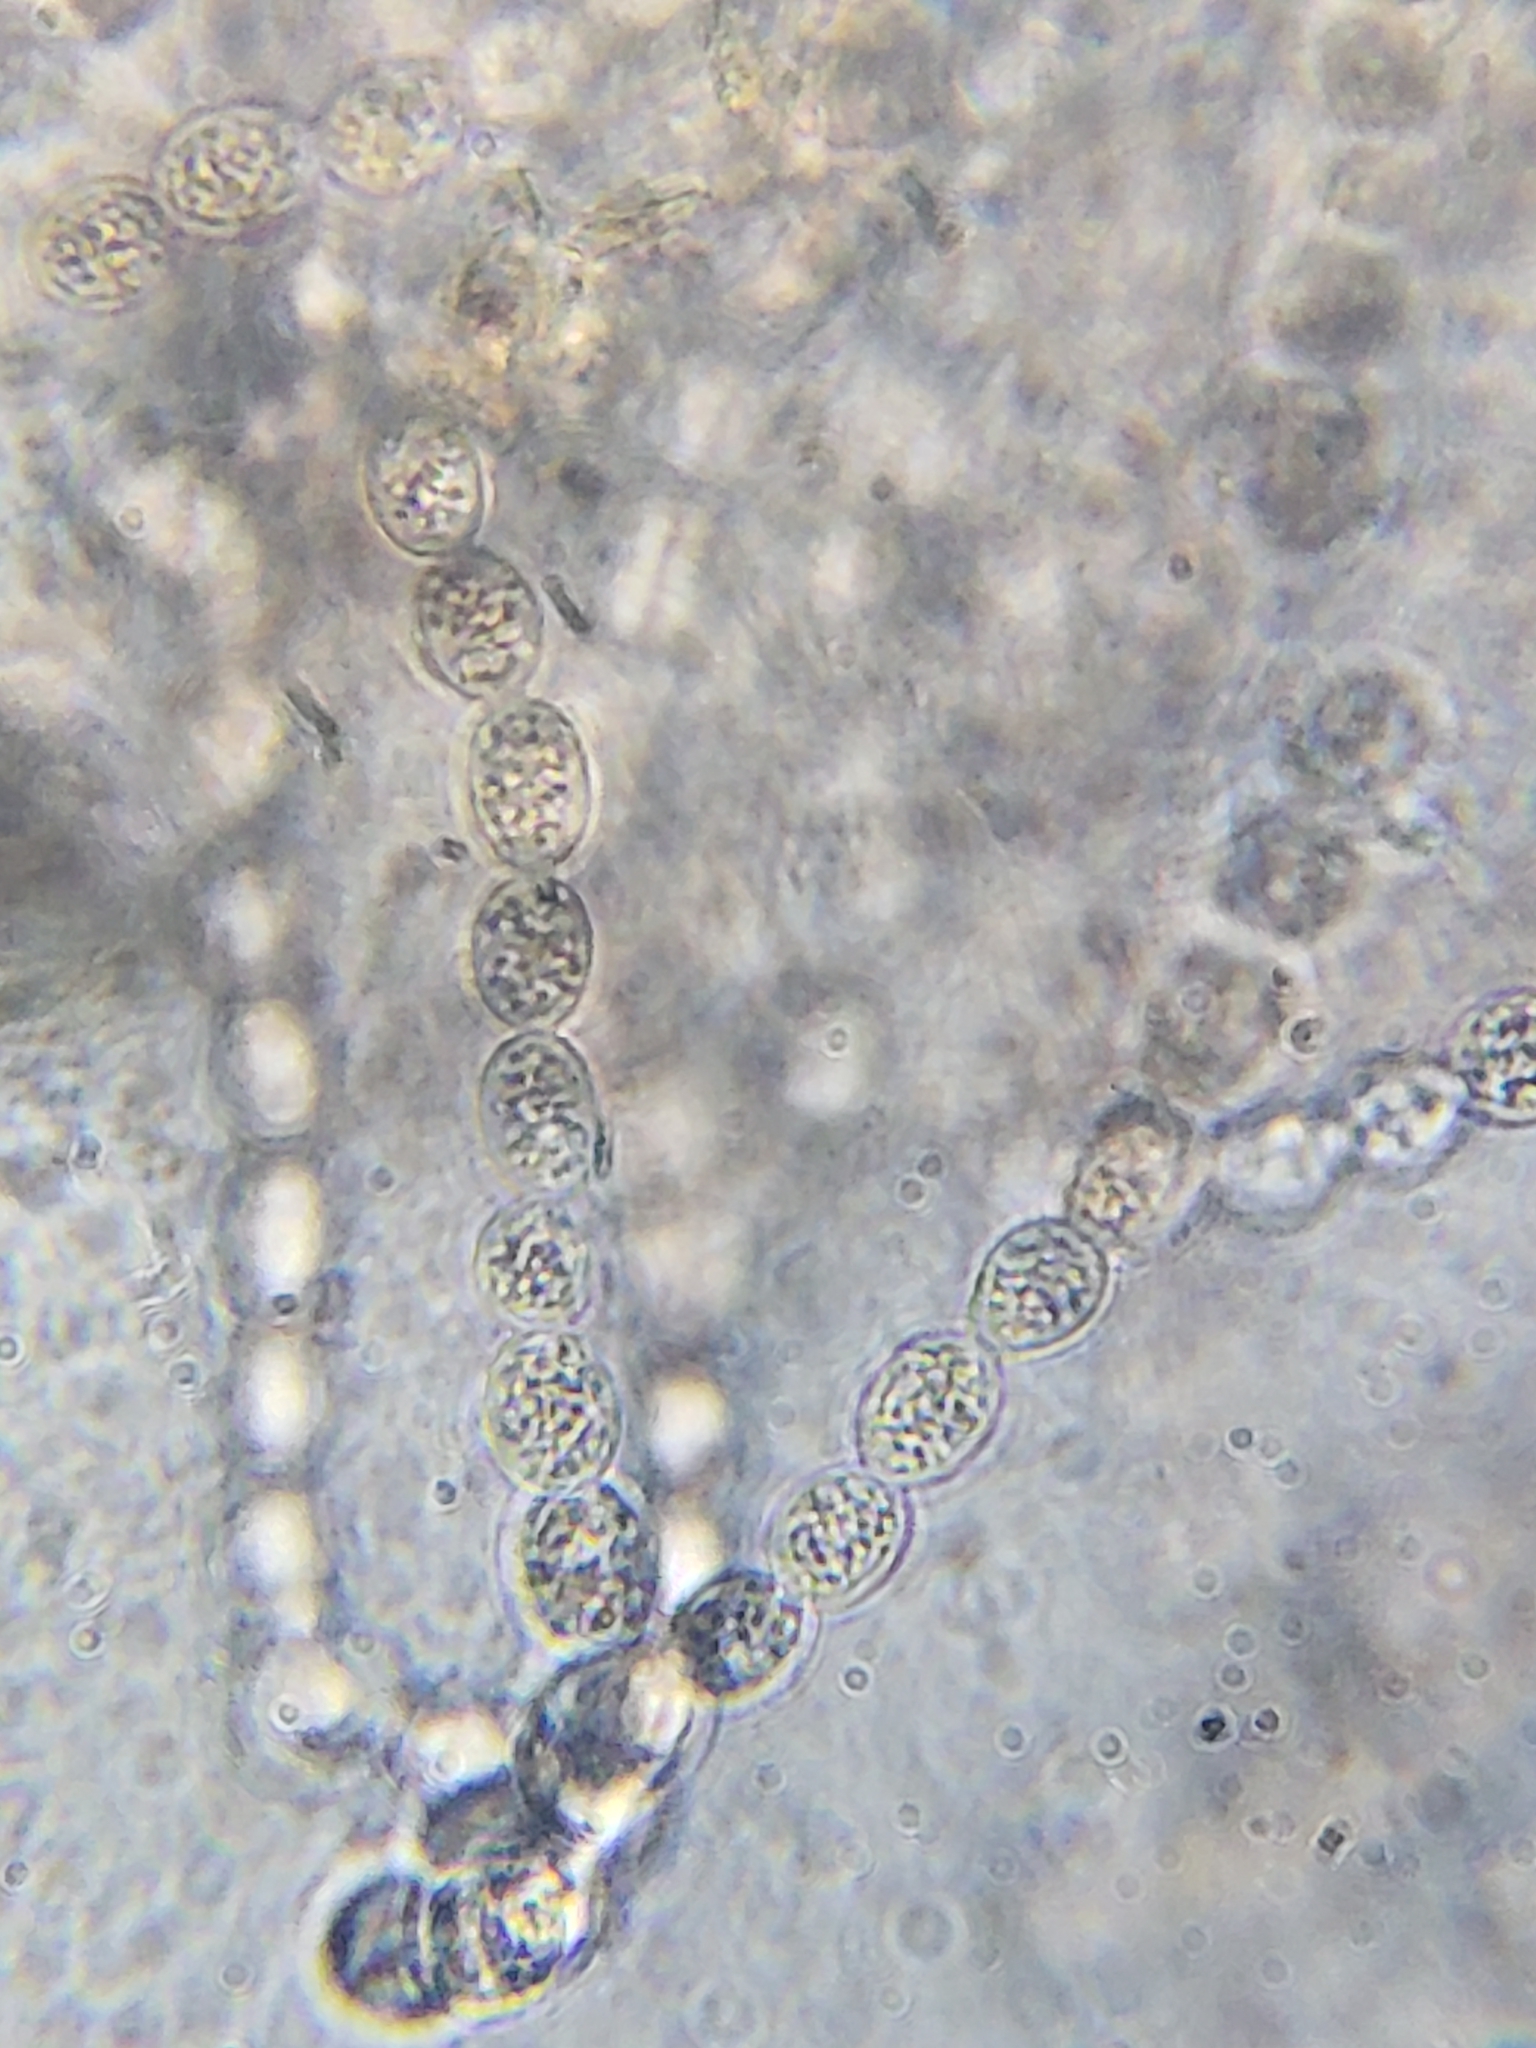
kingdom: Fungi
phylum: Basidiomycota
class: Agaricomycetes
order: Cantharellales
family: Tulasnellaceae
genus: Tulasnella
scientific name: Tulasnella aurantiaca
